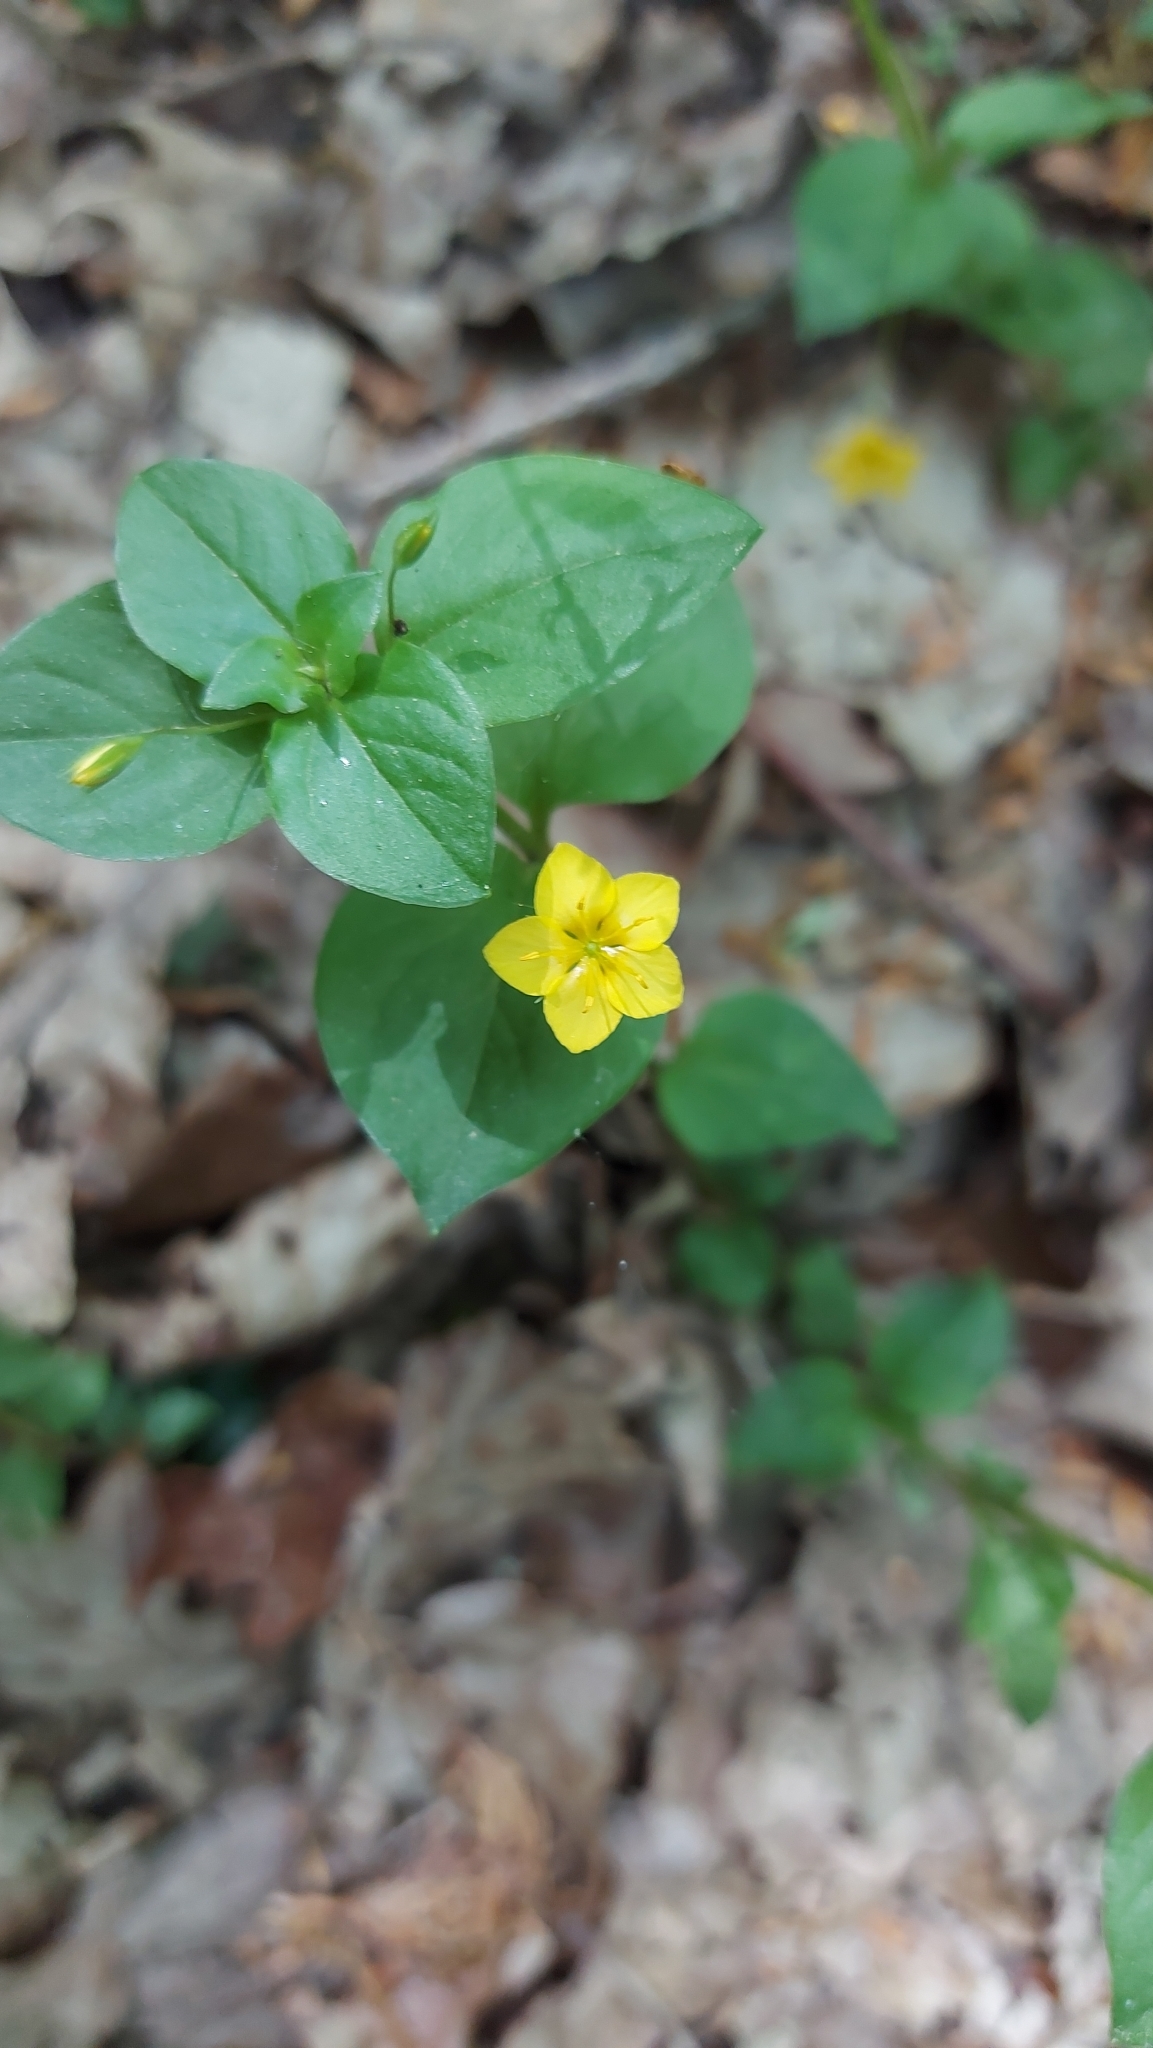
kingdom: Plantae
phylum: Tracheophyta
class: Magnoliopsida
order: Ericales
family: Primulaceae
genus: Lysimachia
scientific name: Lysimachia nemorum
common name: Yellow pimpernel
